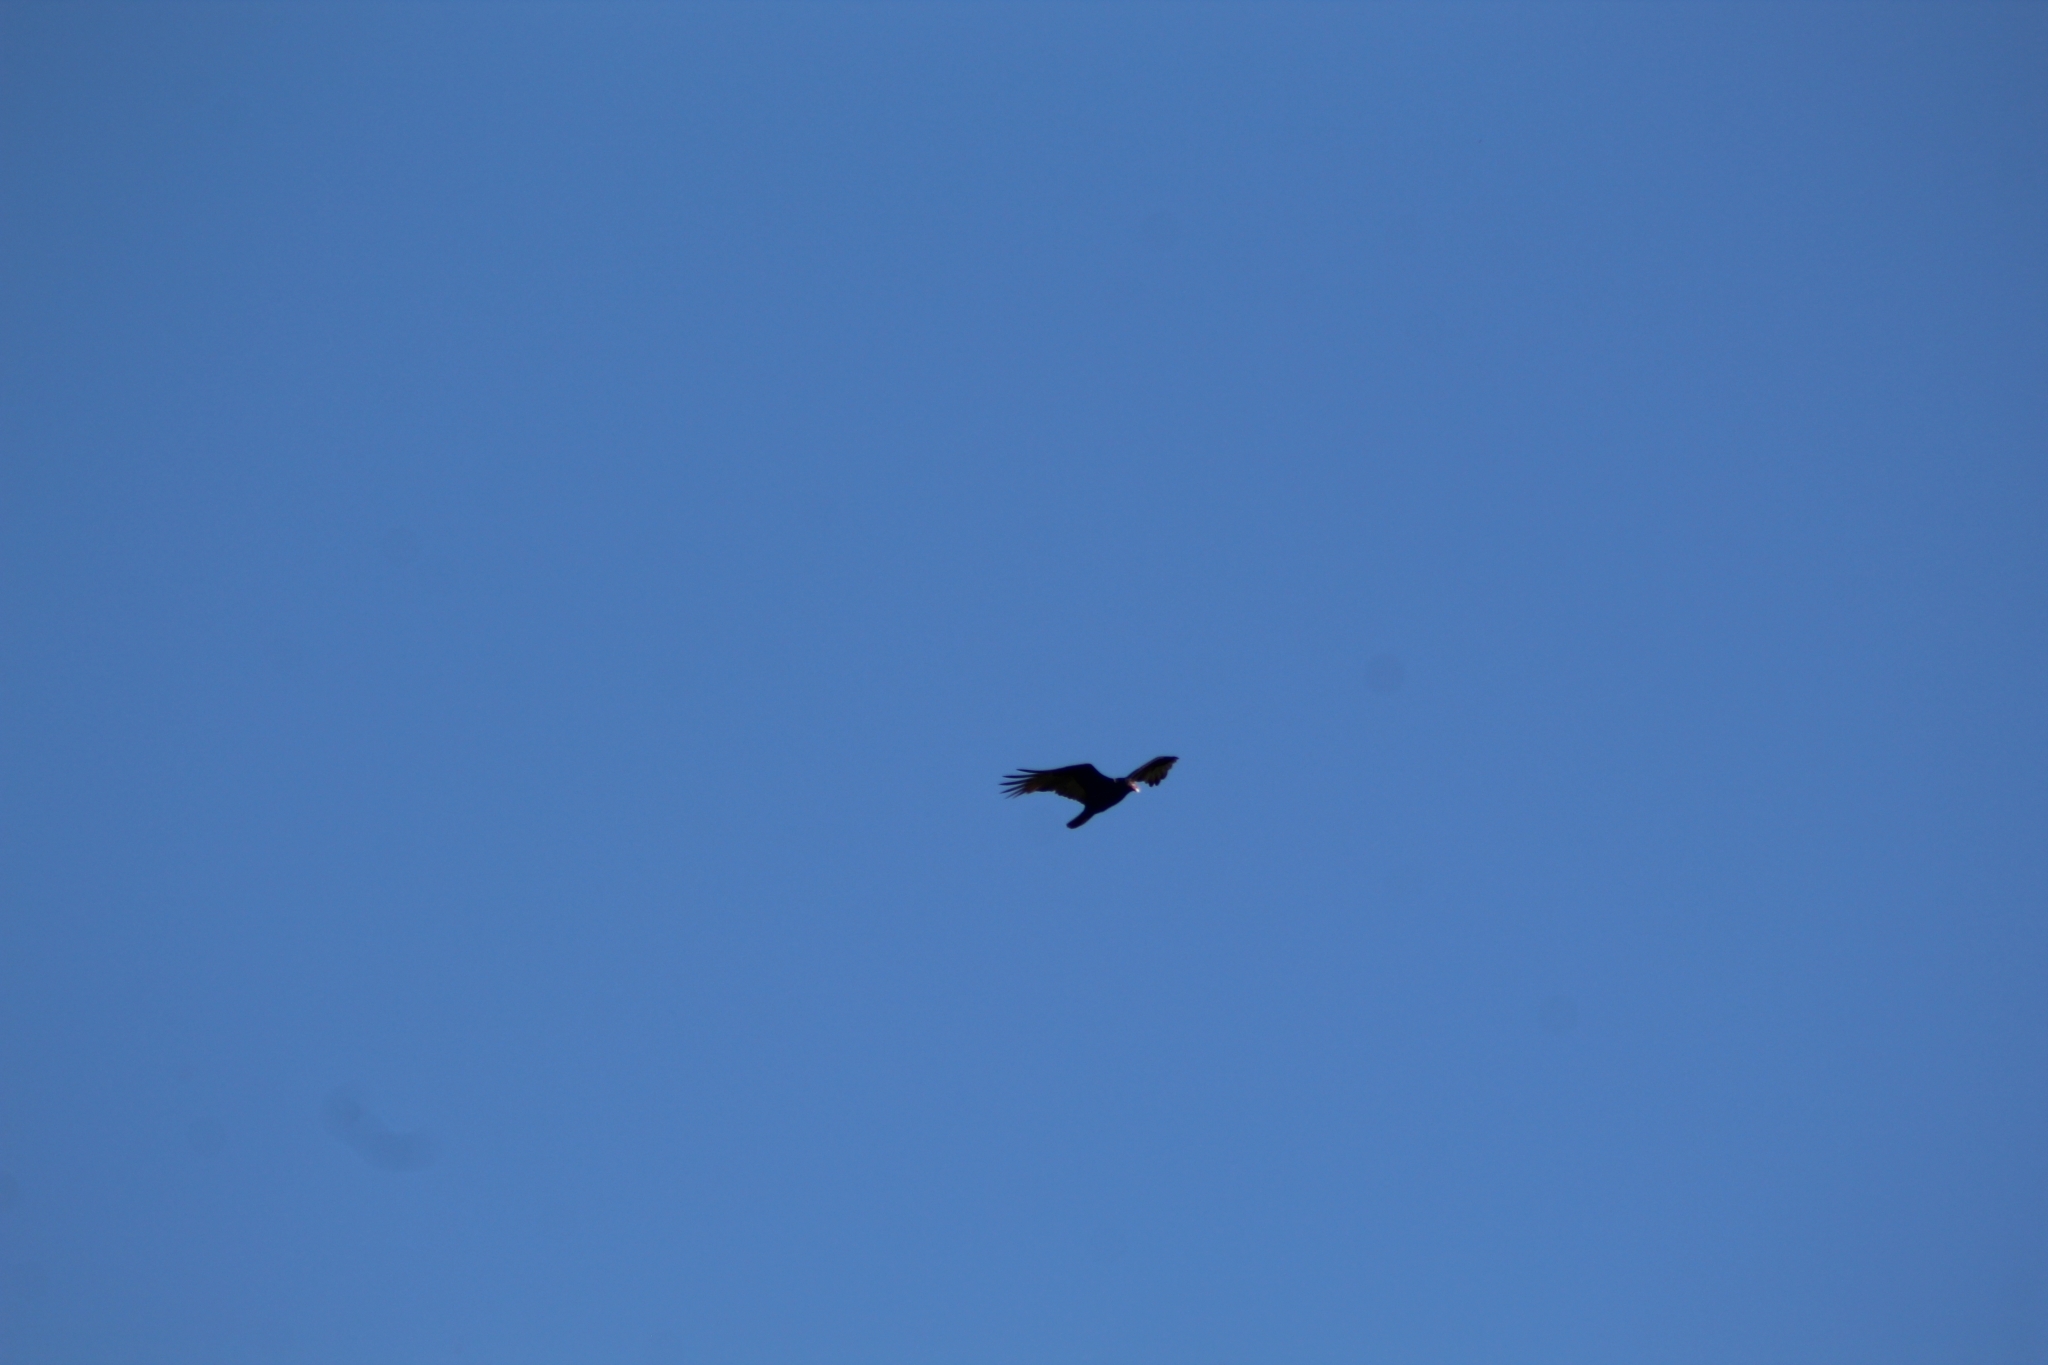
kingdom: Animalia
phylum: Chordata
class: Aves
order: Accipitriformes
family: Cathartidae
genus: Cathartes
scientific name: Cathartes aura
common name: Turkey vulture
